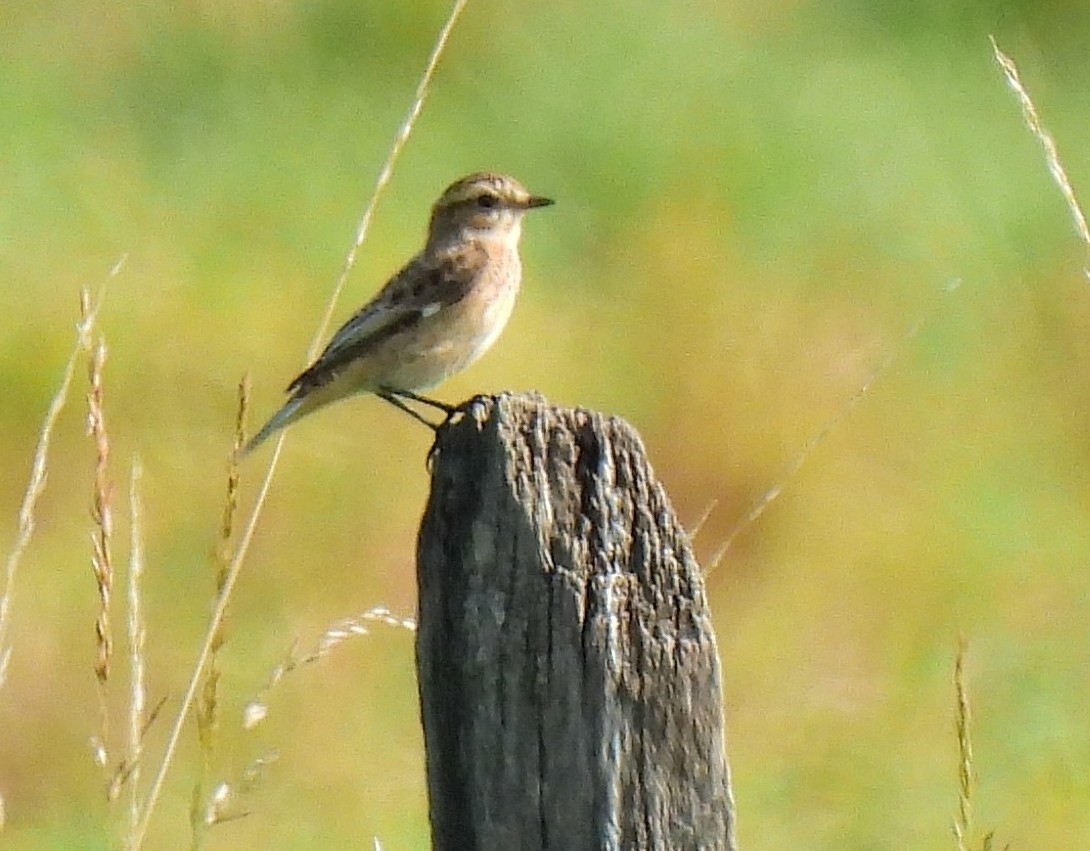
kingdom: Animalia
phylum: Chordata
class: Aves
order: Passeriformes
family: Muscicapidae
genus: Saxicola
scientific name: Saxicola rubetra
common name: Whinchat
